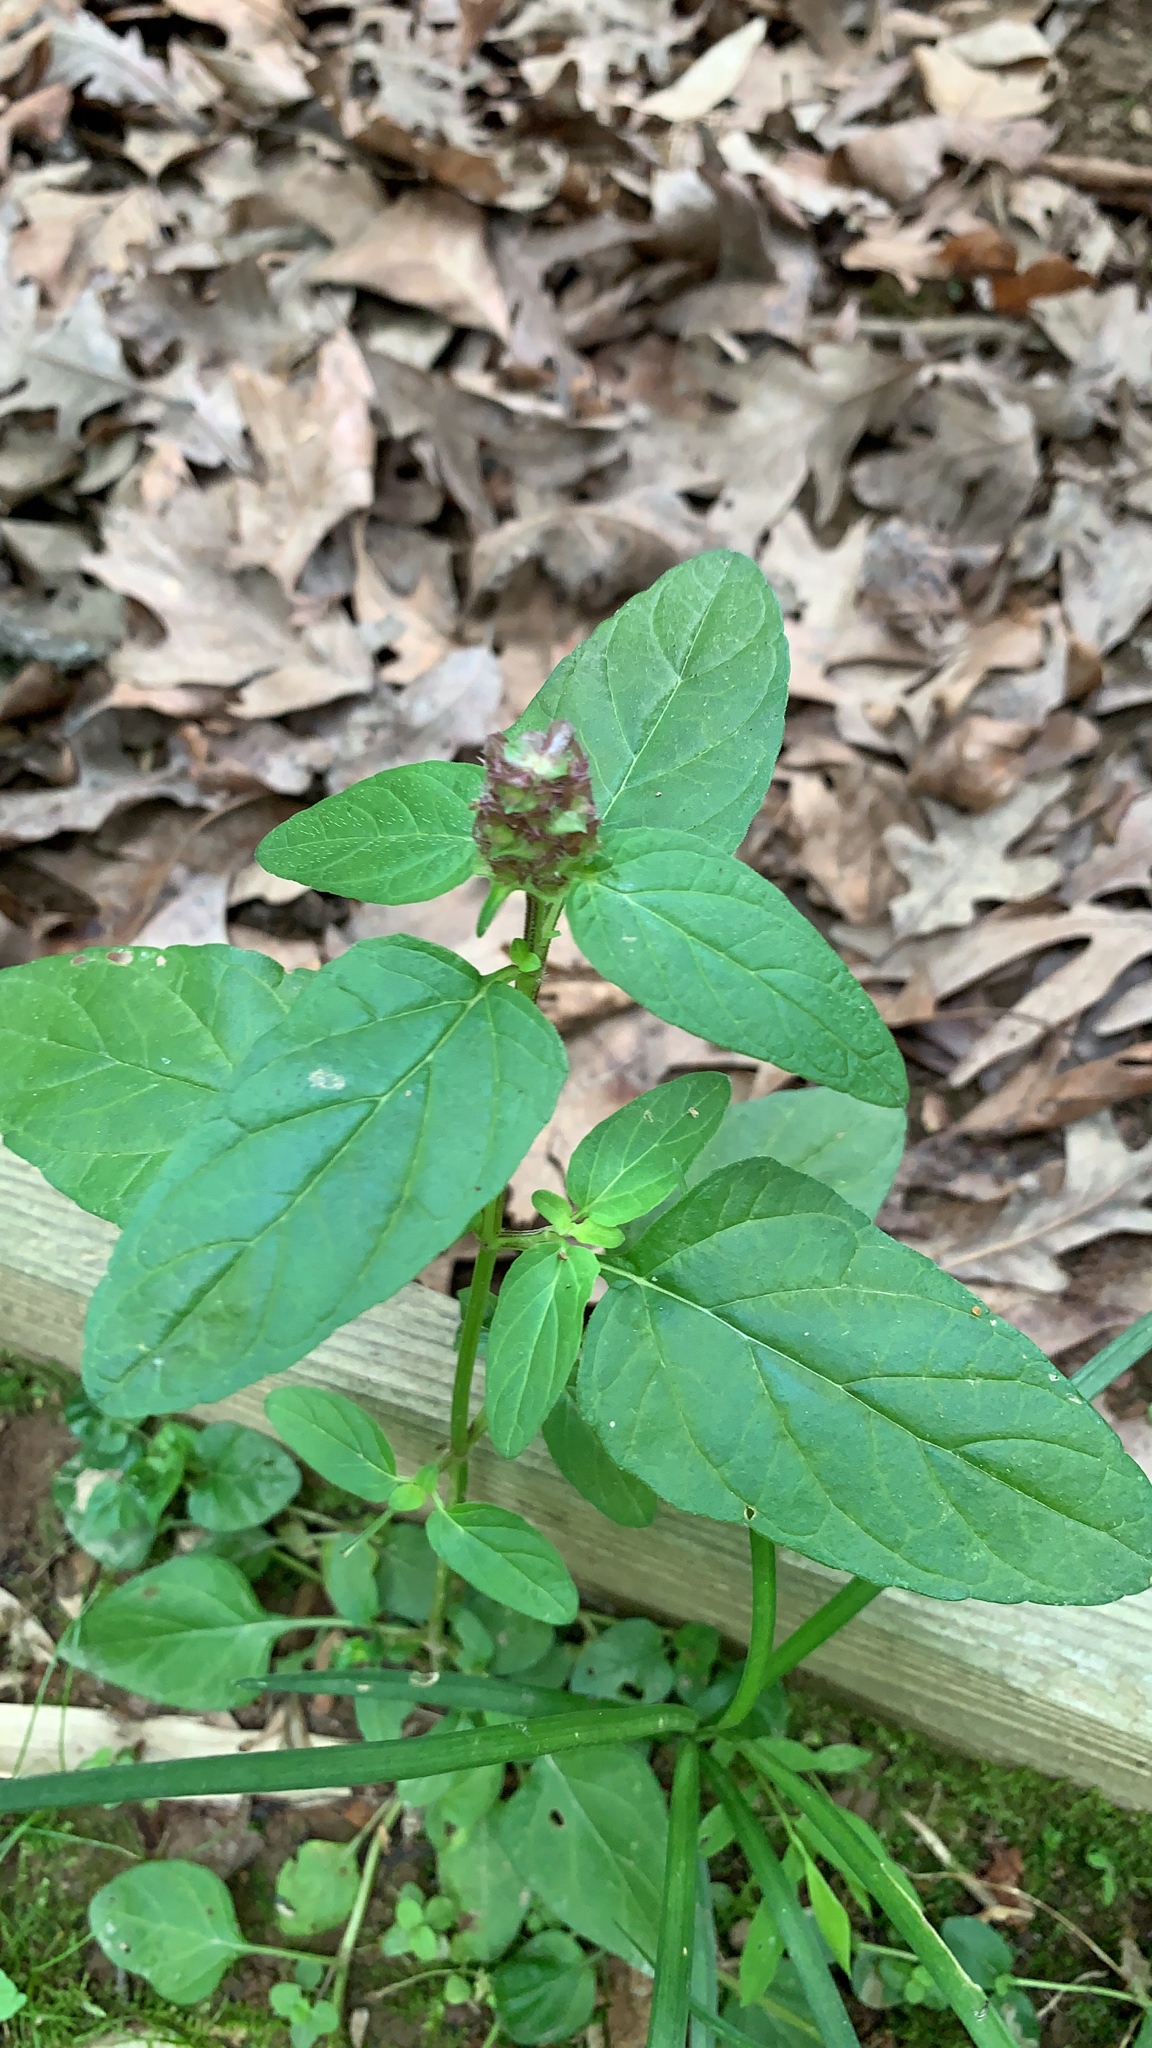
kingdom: Plantae
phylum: Tracheophyta
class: Magnoliopsida
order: Lamiales
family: Lamiaceae
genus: Prunella
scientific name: Prunella vulgaris
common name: Heal-all
